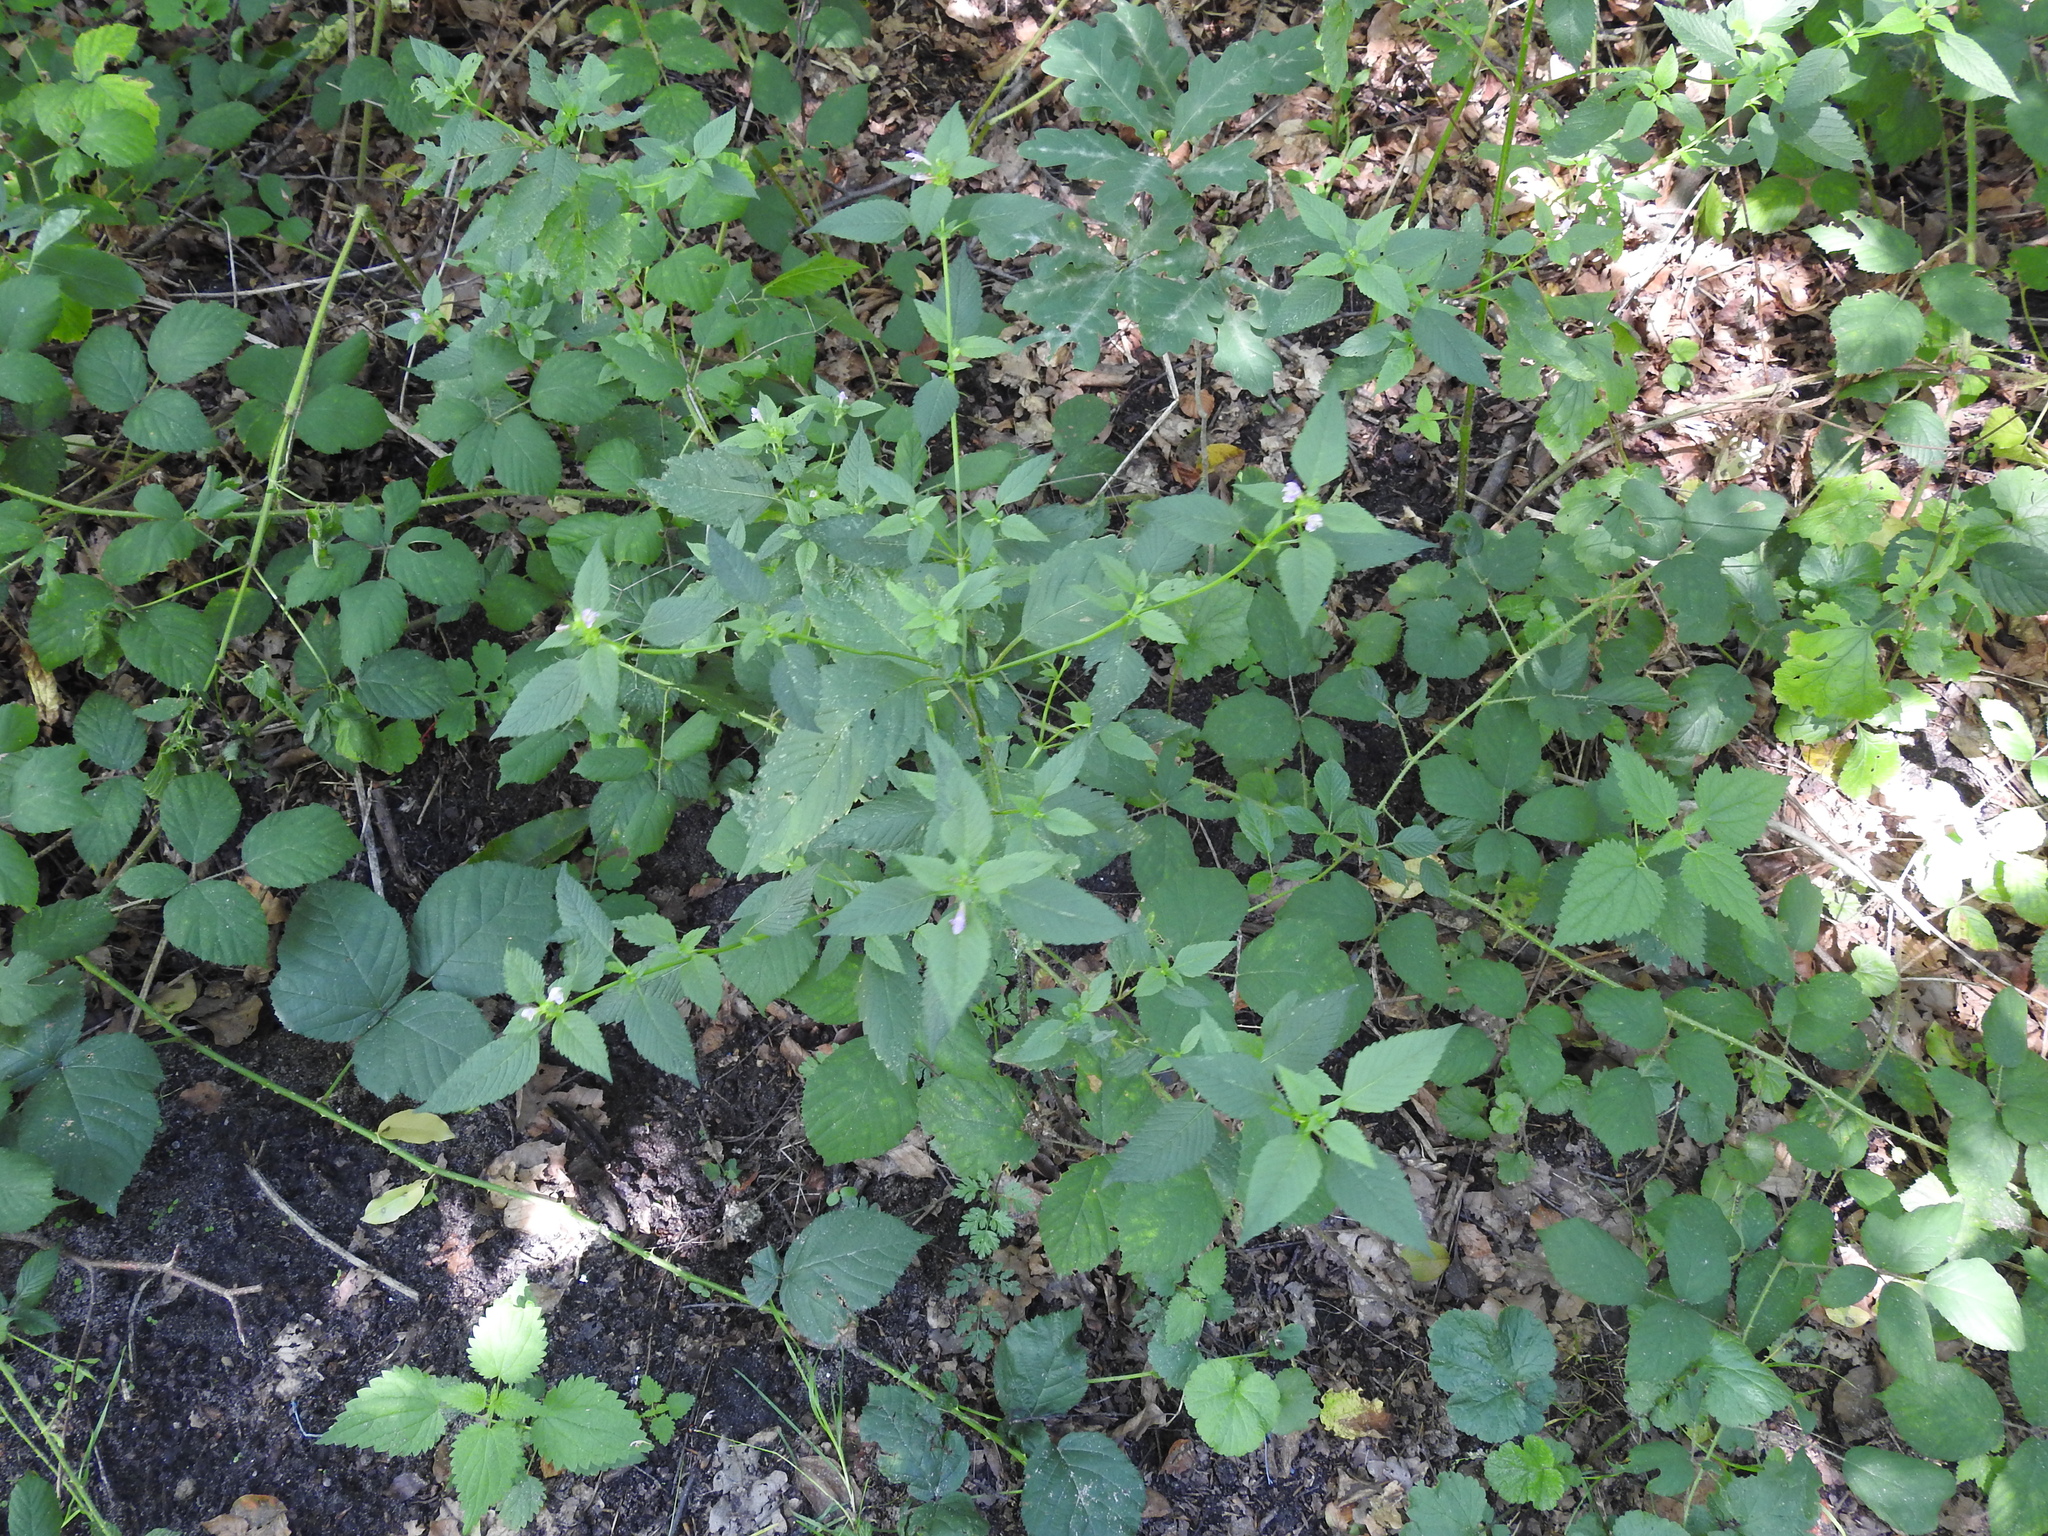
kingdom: Plantae
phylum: Tracheophyta
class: Magnoliopsida
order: Lamiales
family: Lamiaceae
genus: Galeopsis
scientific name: Galeopsis tetrahit
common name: Common hemp-nettle
